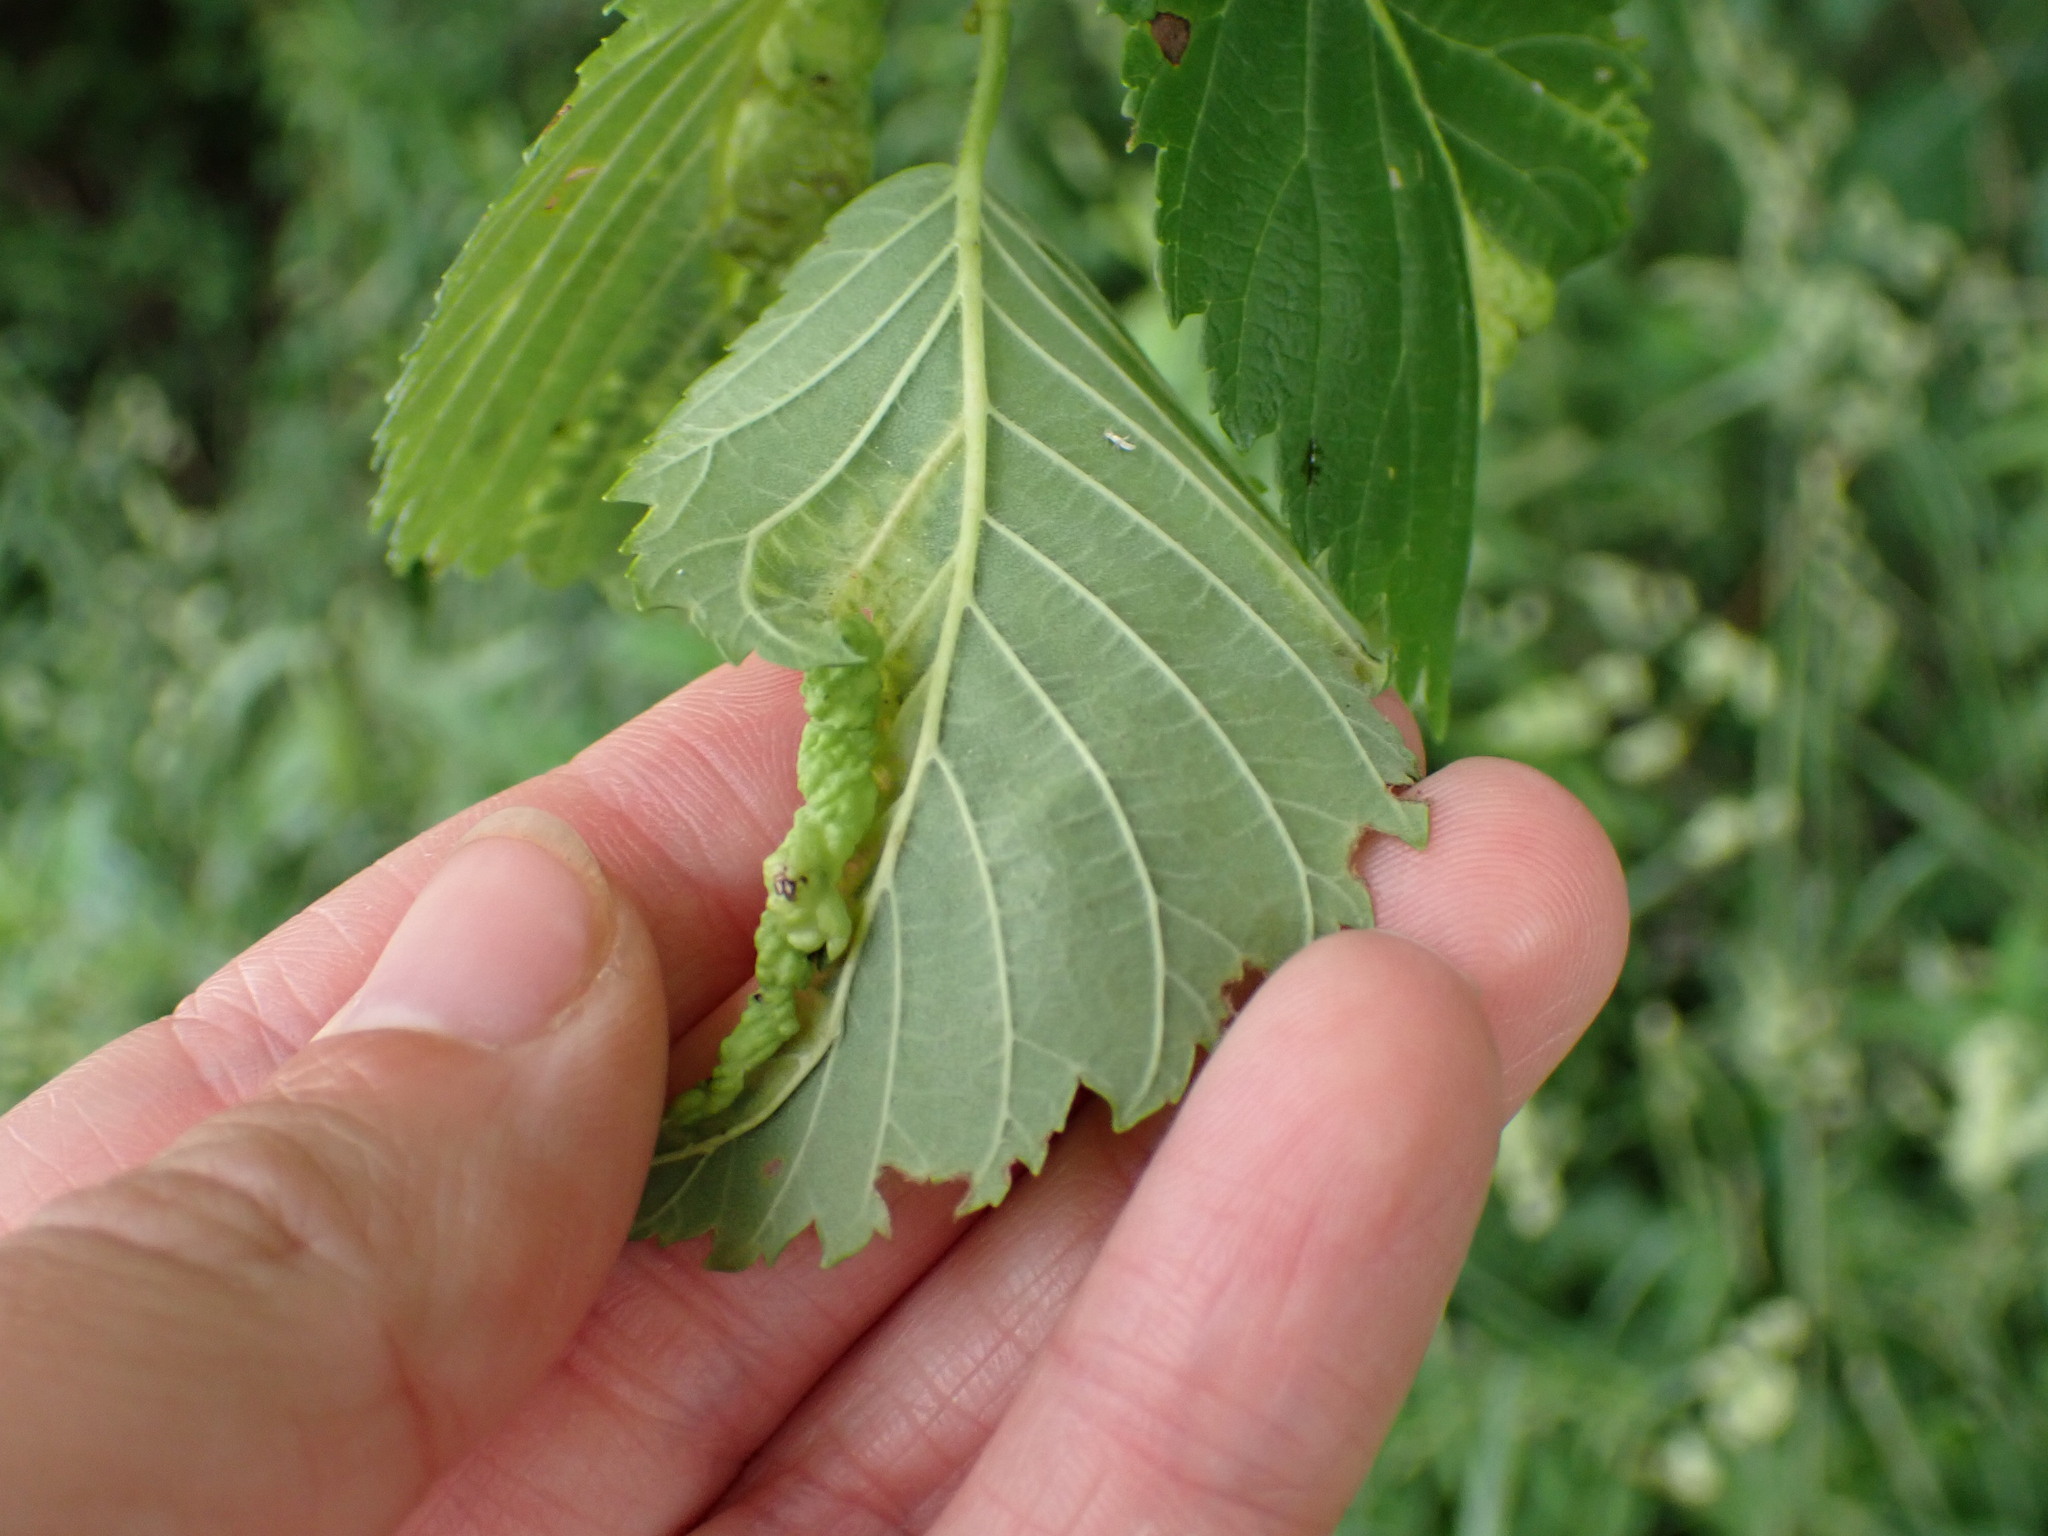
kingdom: Animalia
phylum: Arthropoda
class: Insecta
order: Hemiptera
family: Aphididae
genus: Eriosoma
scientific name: Eriosoma americanum
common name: Woolly elm aphid
